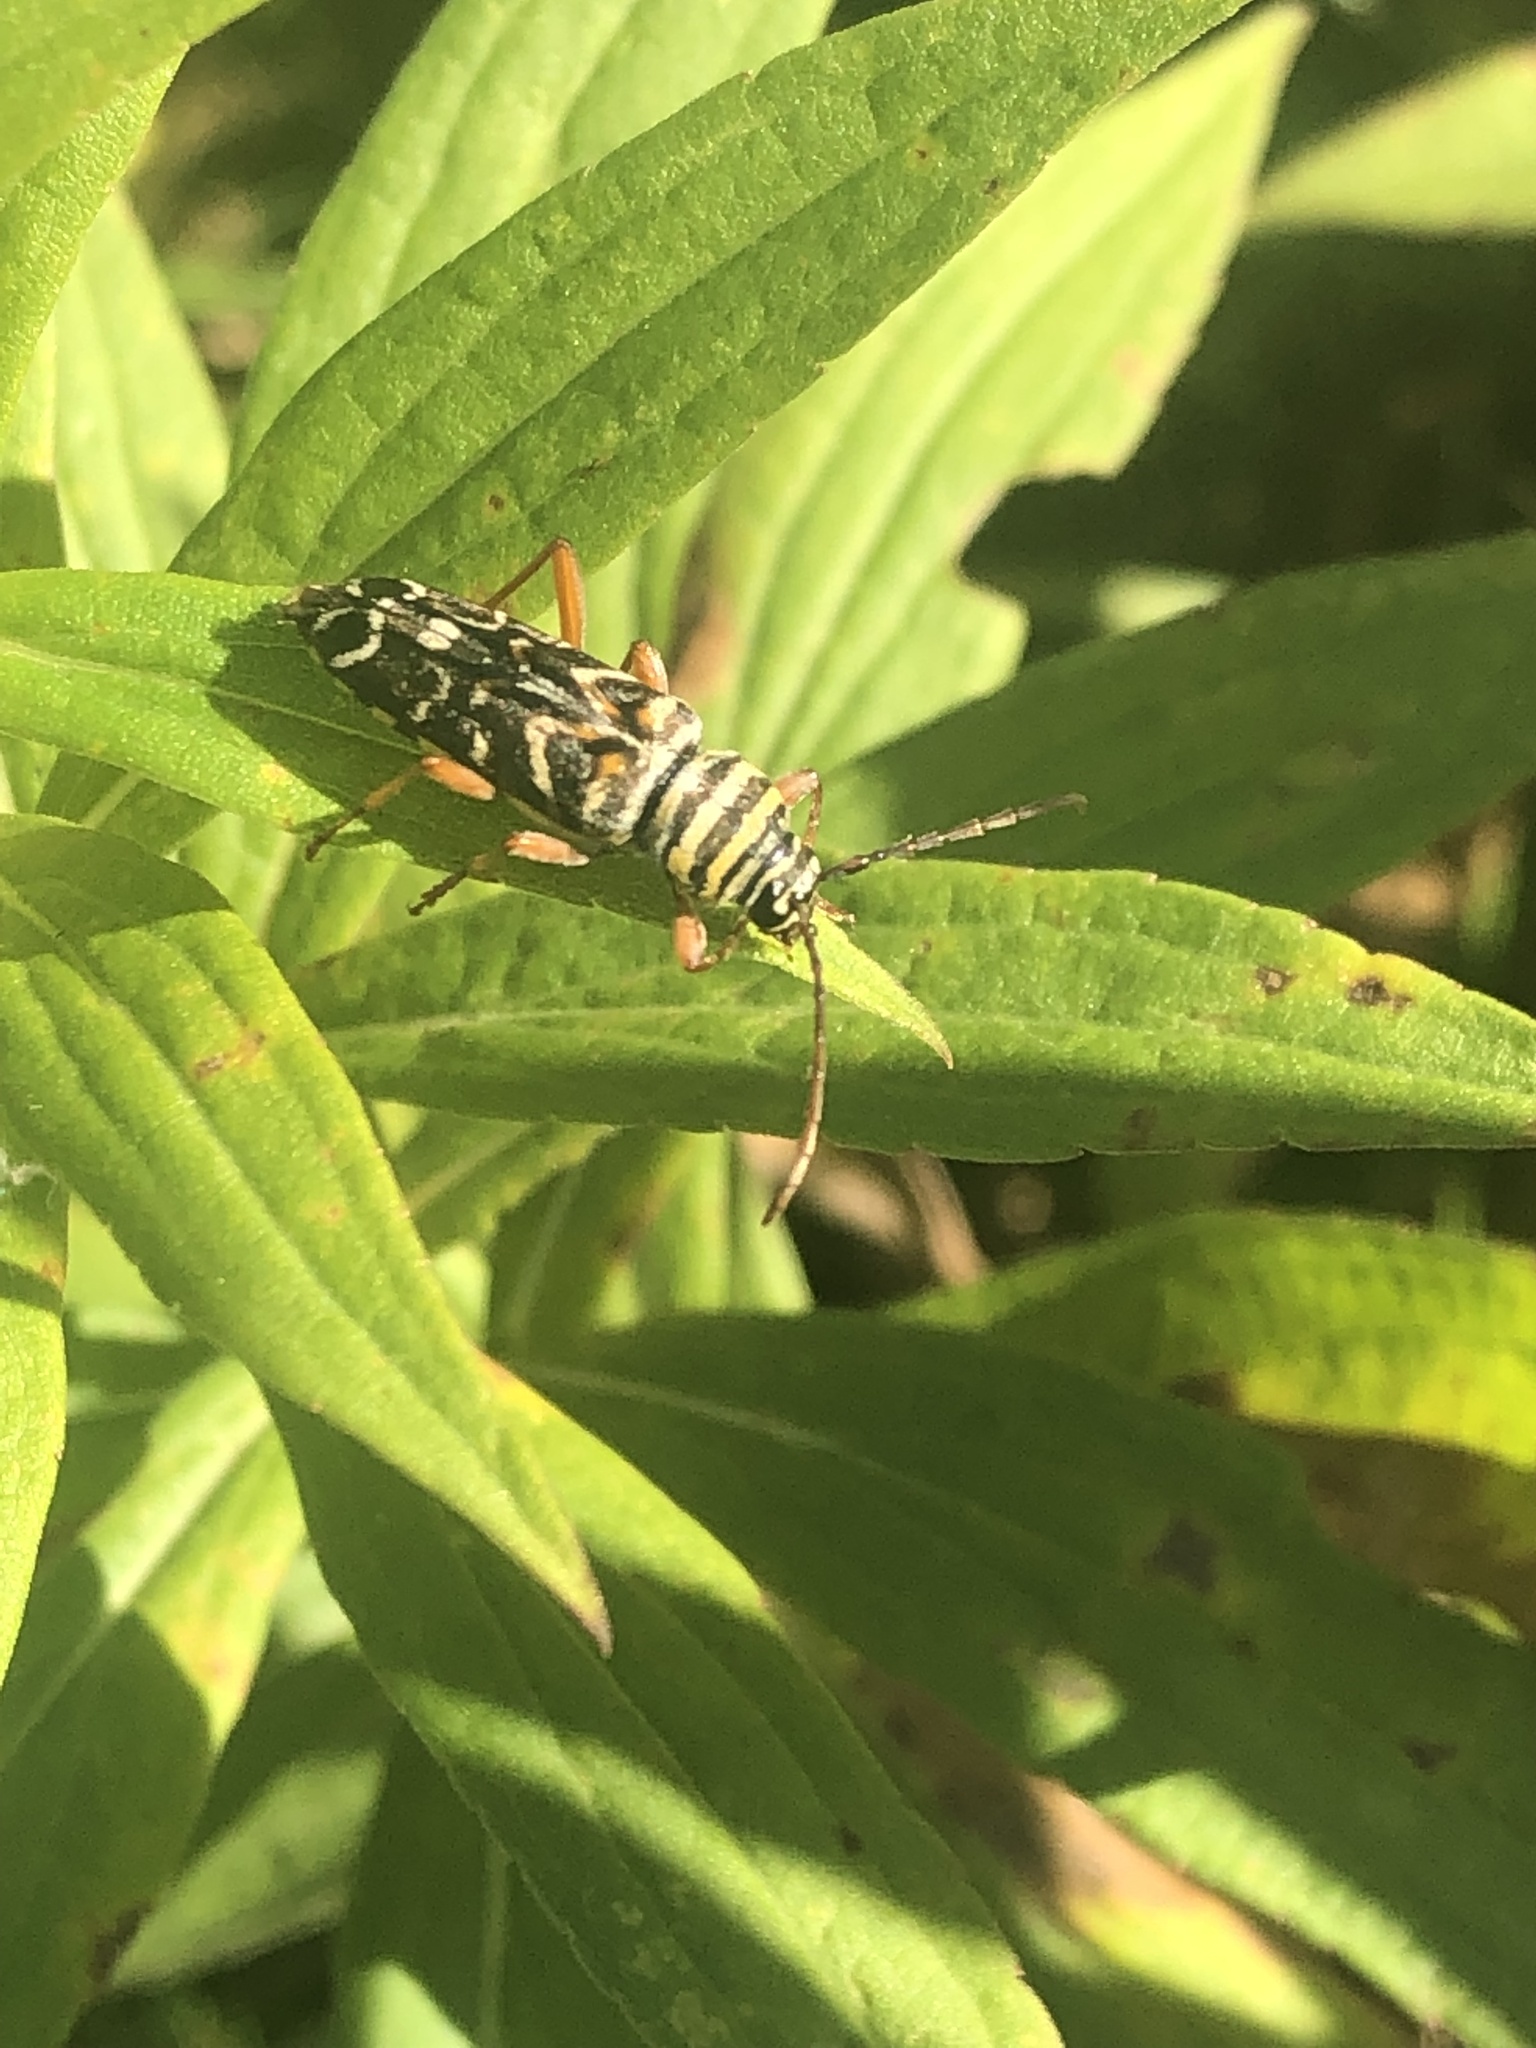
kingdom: Animalia
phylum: Arthropoda
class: Insecta
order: Coleoptera
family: Cerambycidae
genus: Megacyllene
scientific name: Megacyllene robiniae
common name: Locust borer
